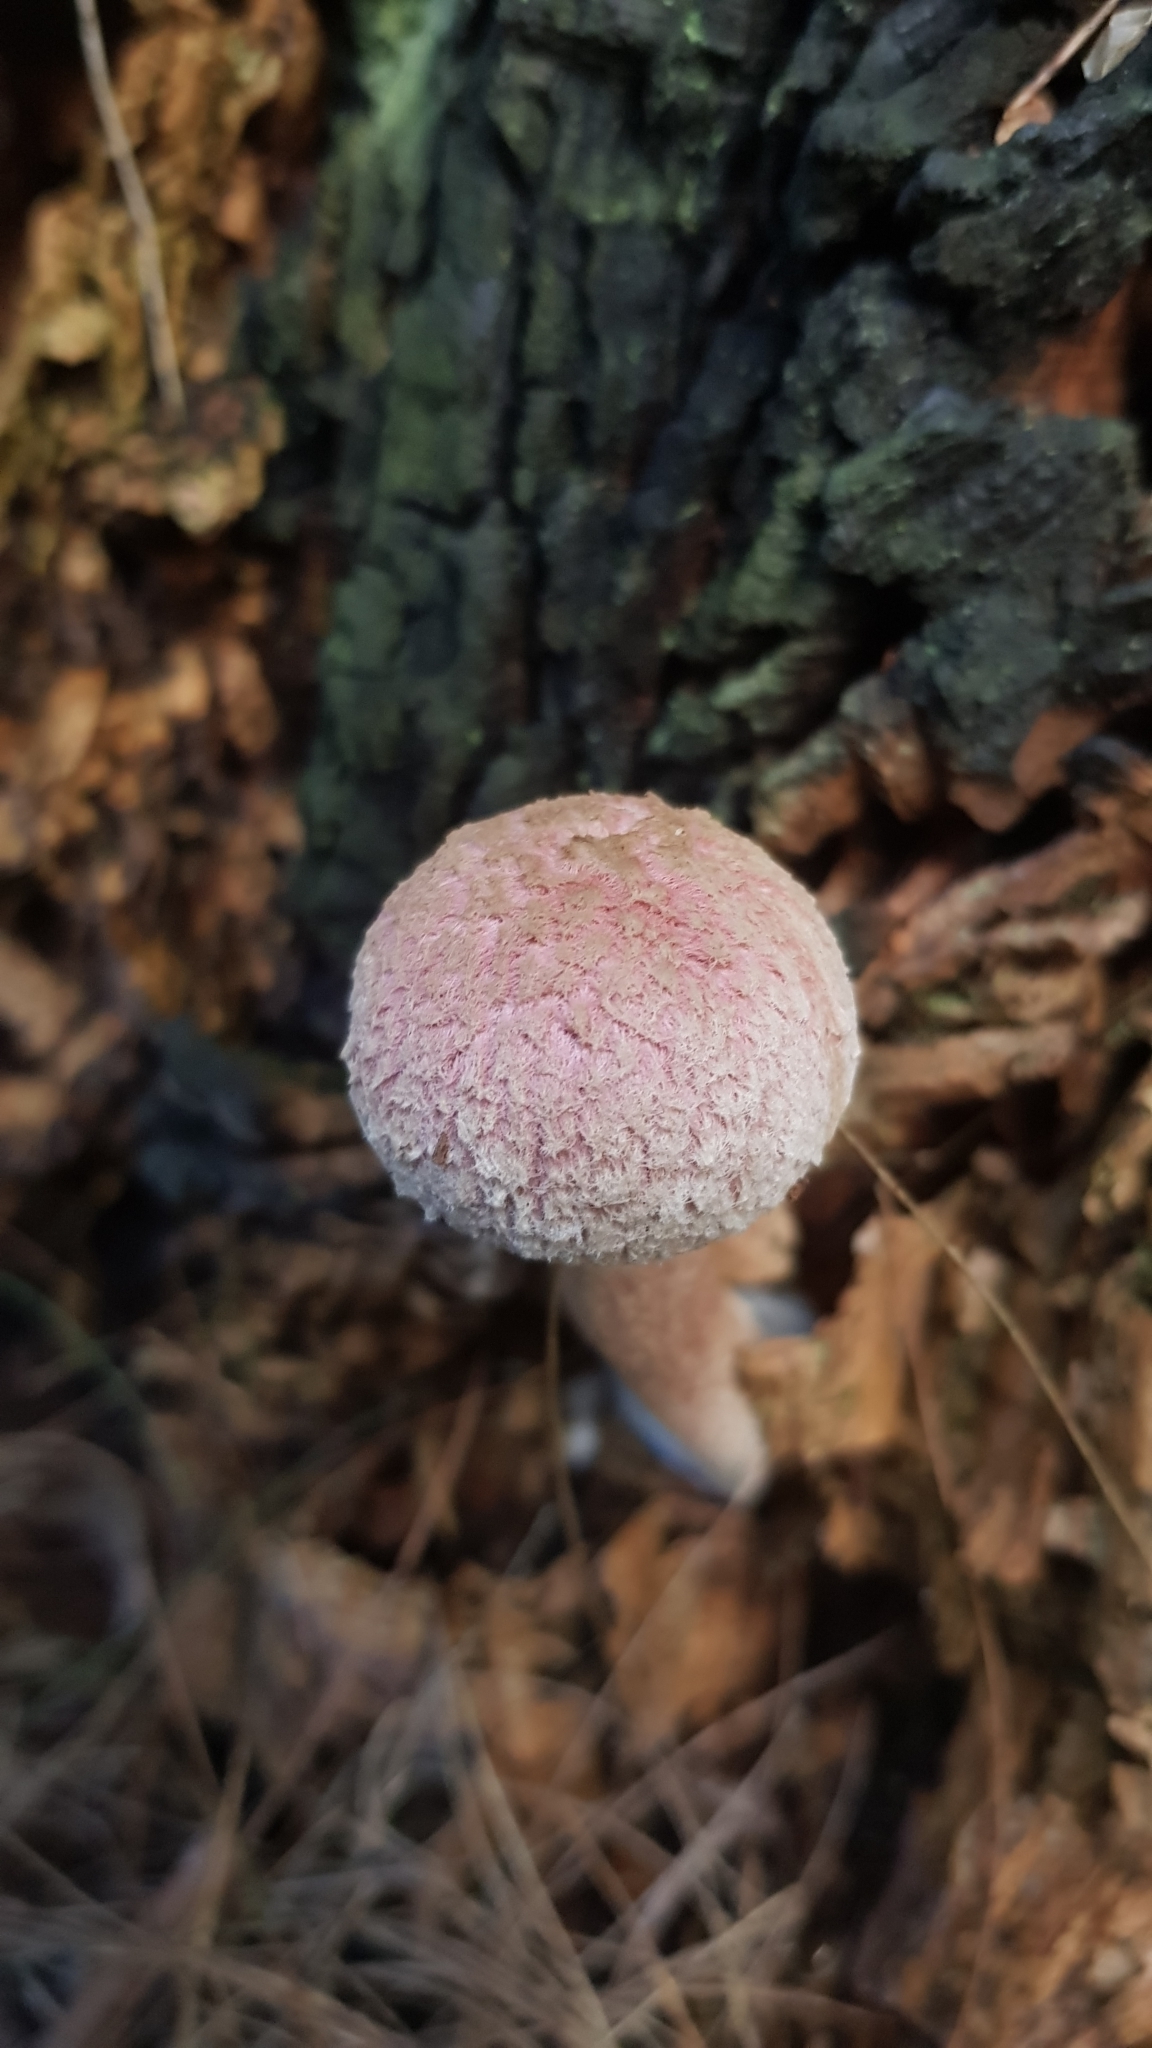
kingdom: Fungi
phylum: Basidiomycota
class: Agaricomycetes
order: Boletales
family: Boletaceae
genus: Boletellus
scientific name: Boletellus deceptivus
